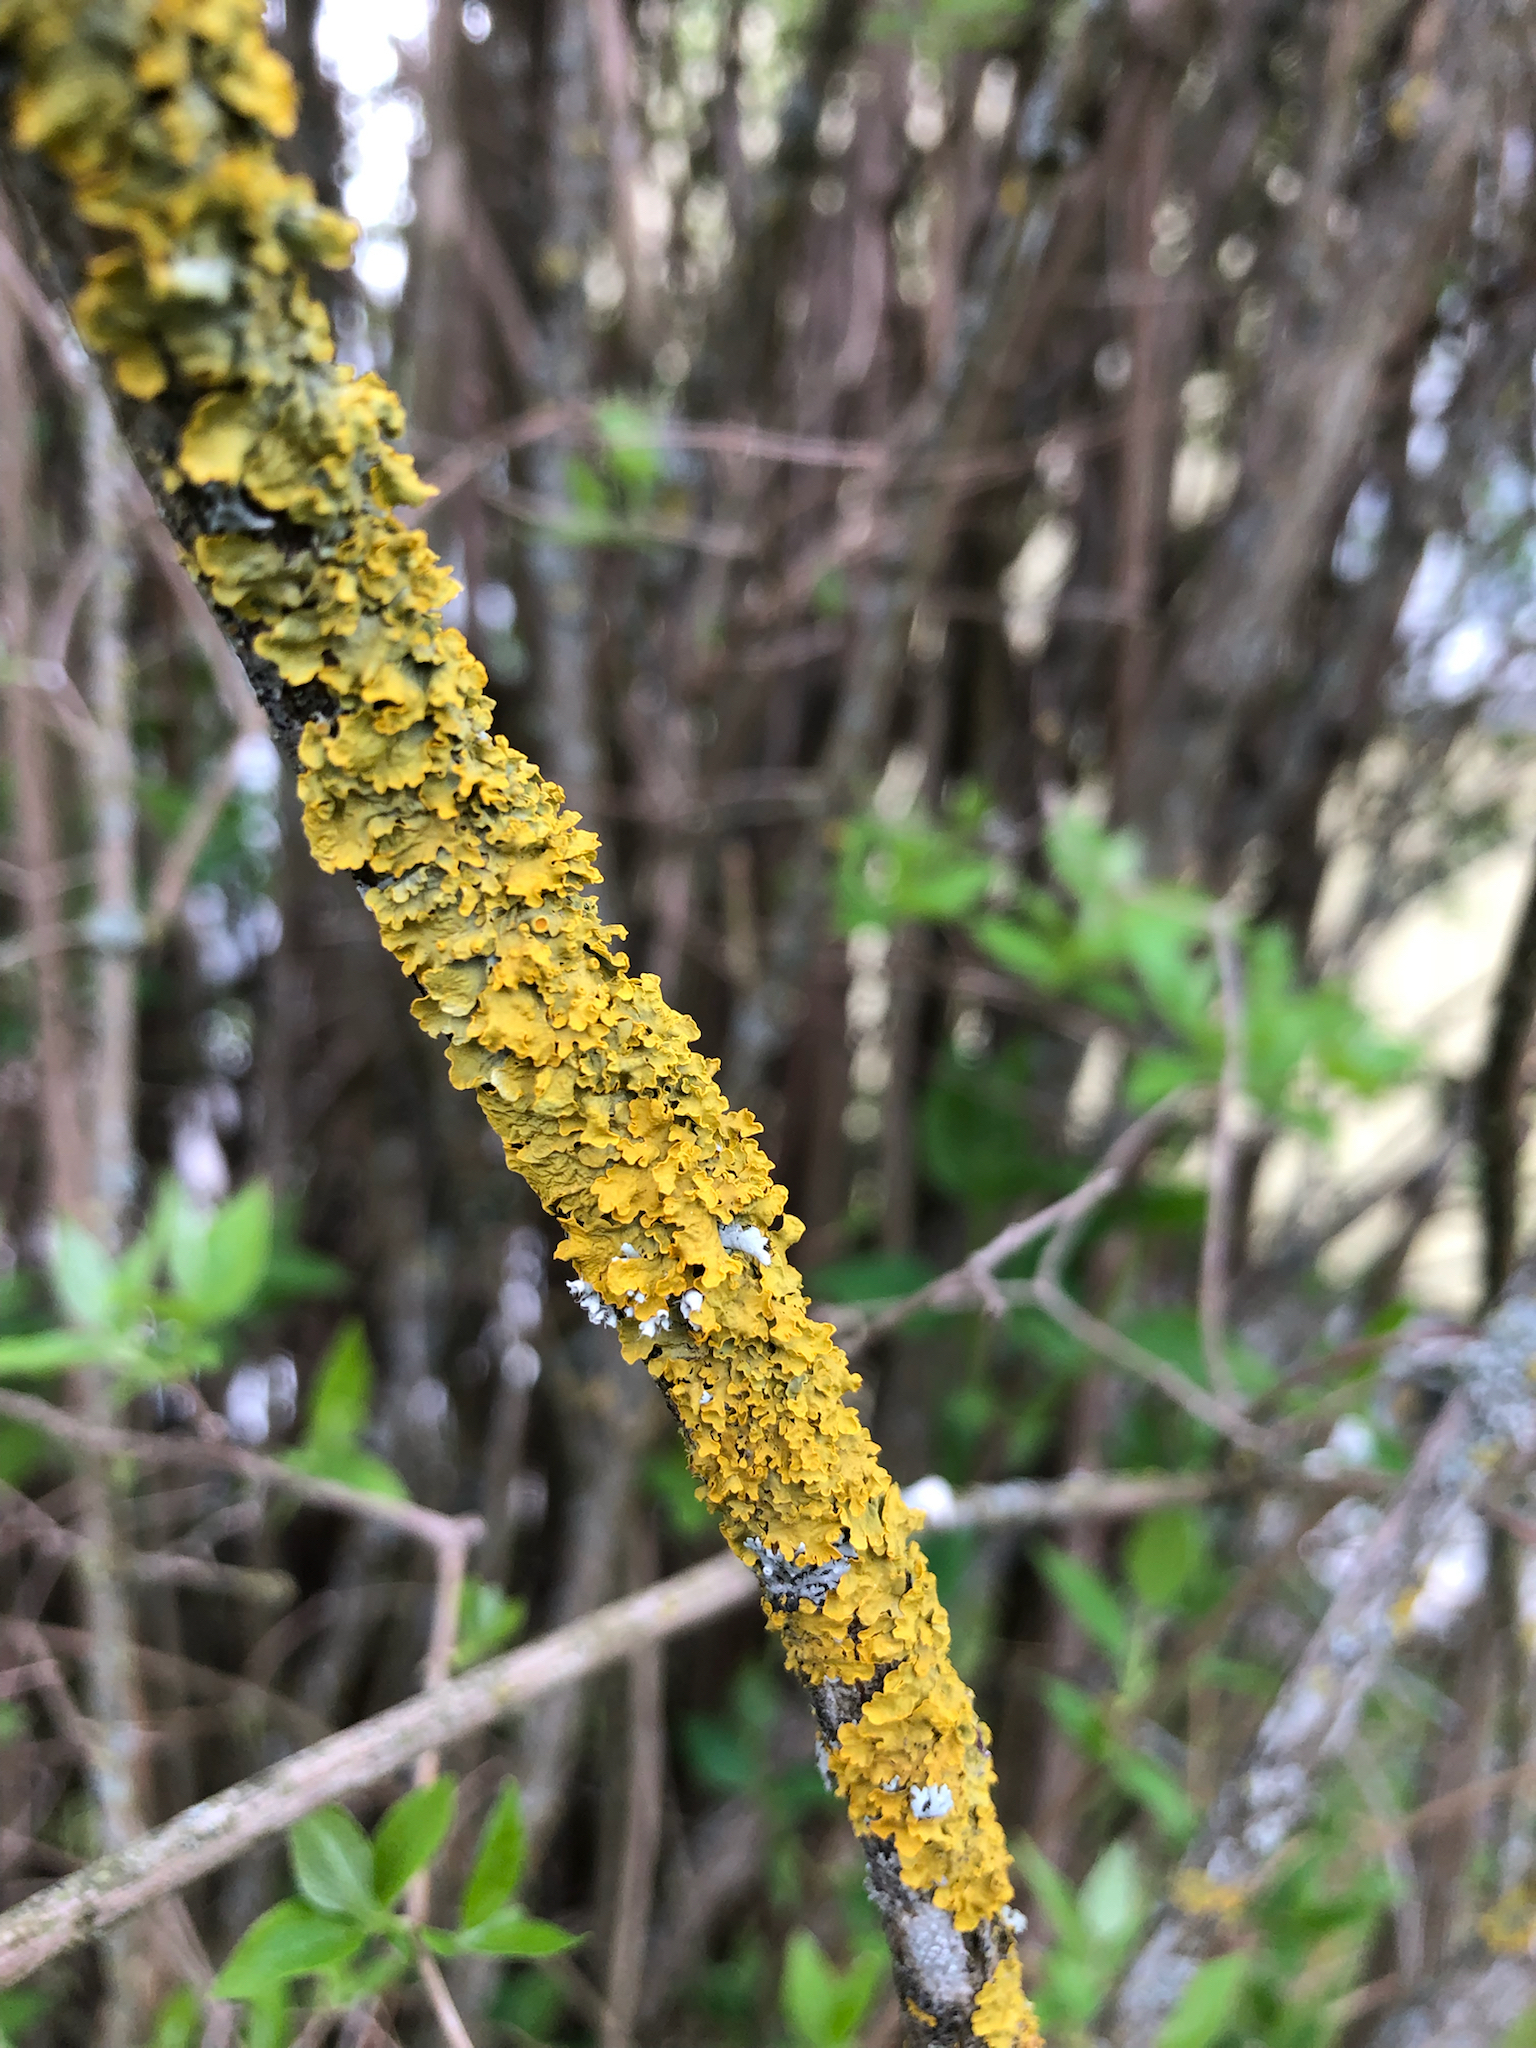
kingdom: Fungi
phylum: Ascomycota
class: Lecanoromycetes
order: Teloschistales
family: Teloschistaceae
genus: Xanthoria
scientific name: Xanthoria parietina
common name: Common orange lichen
